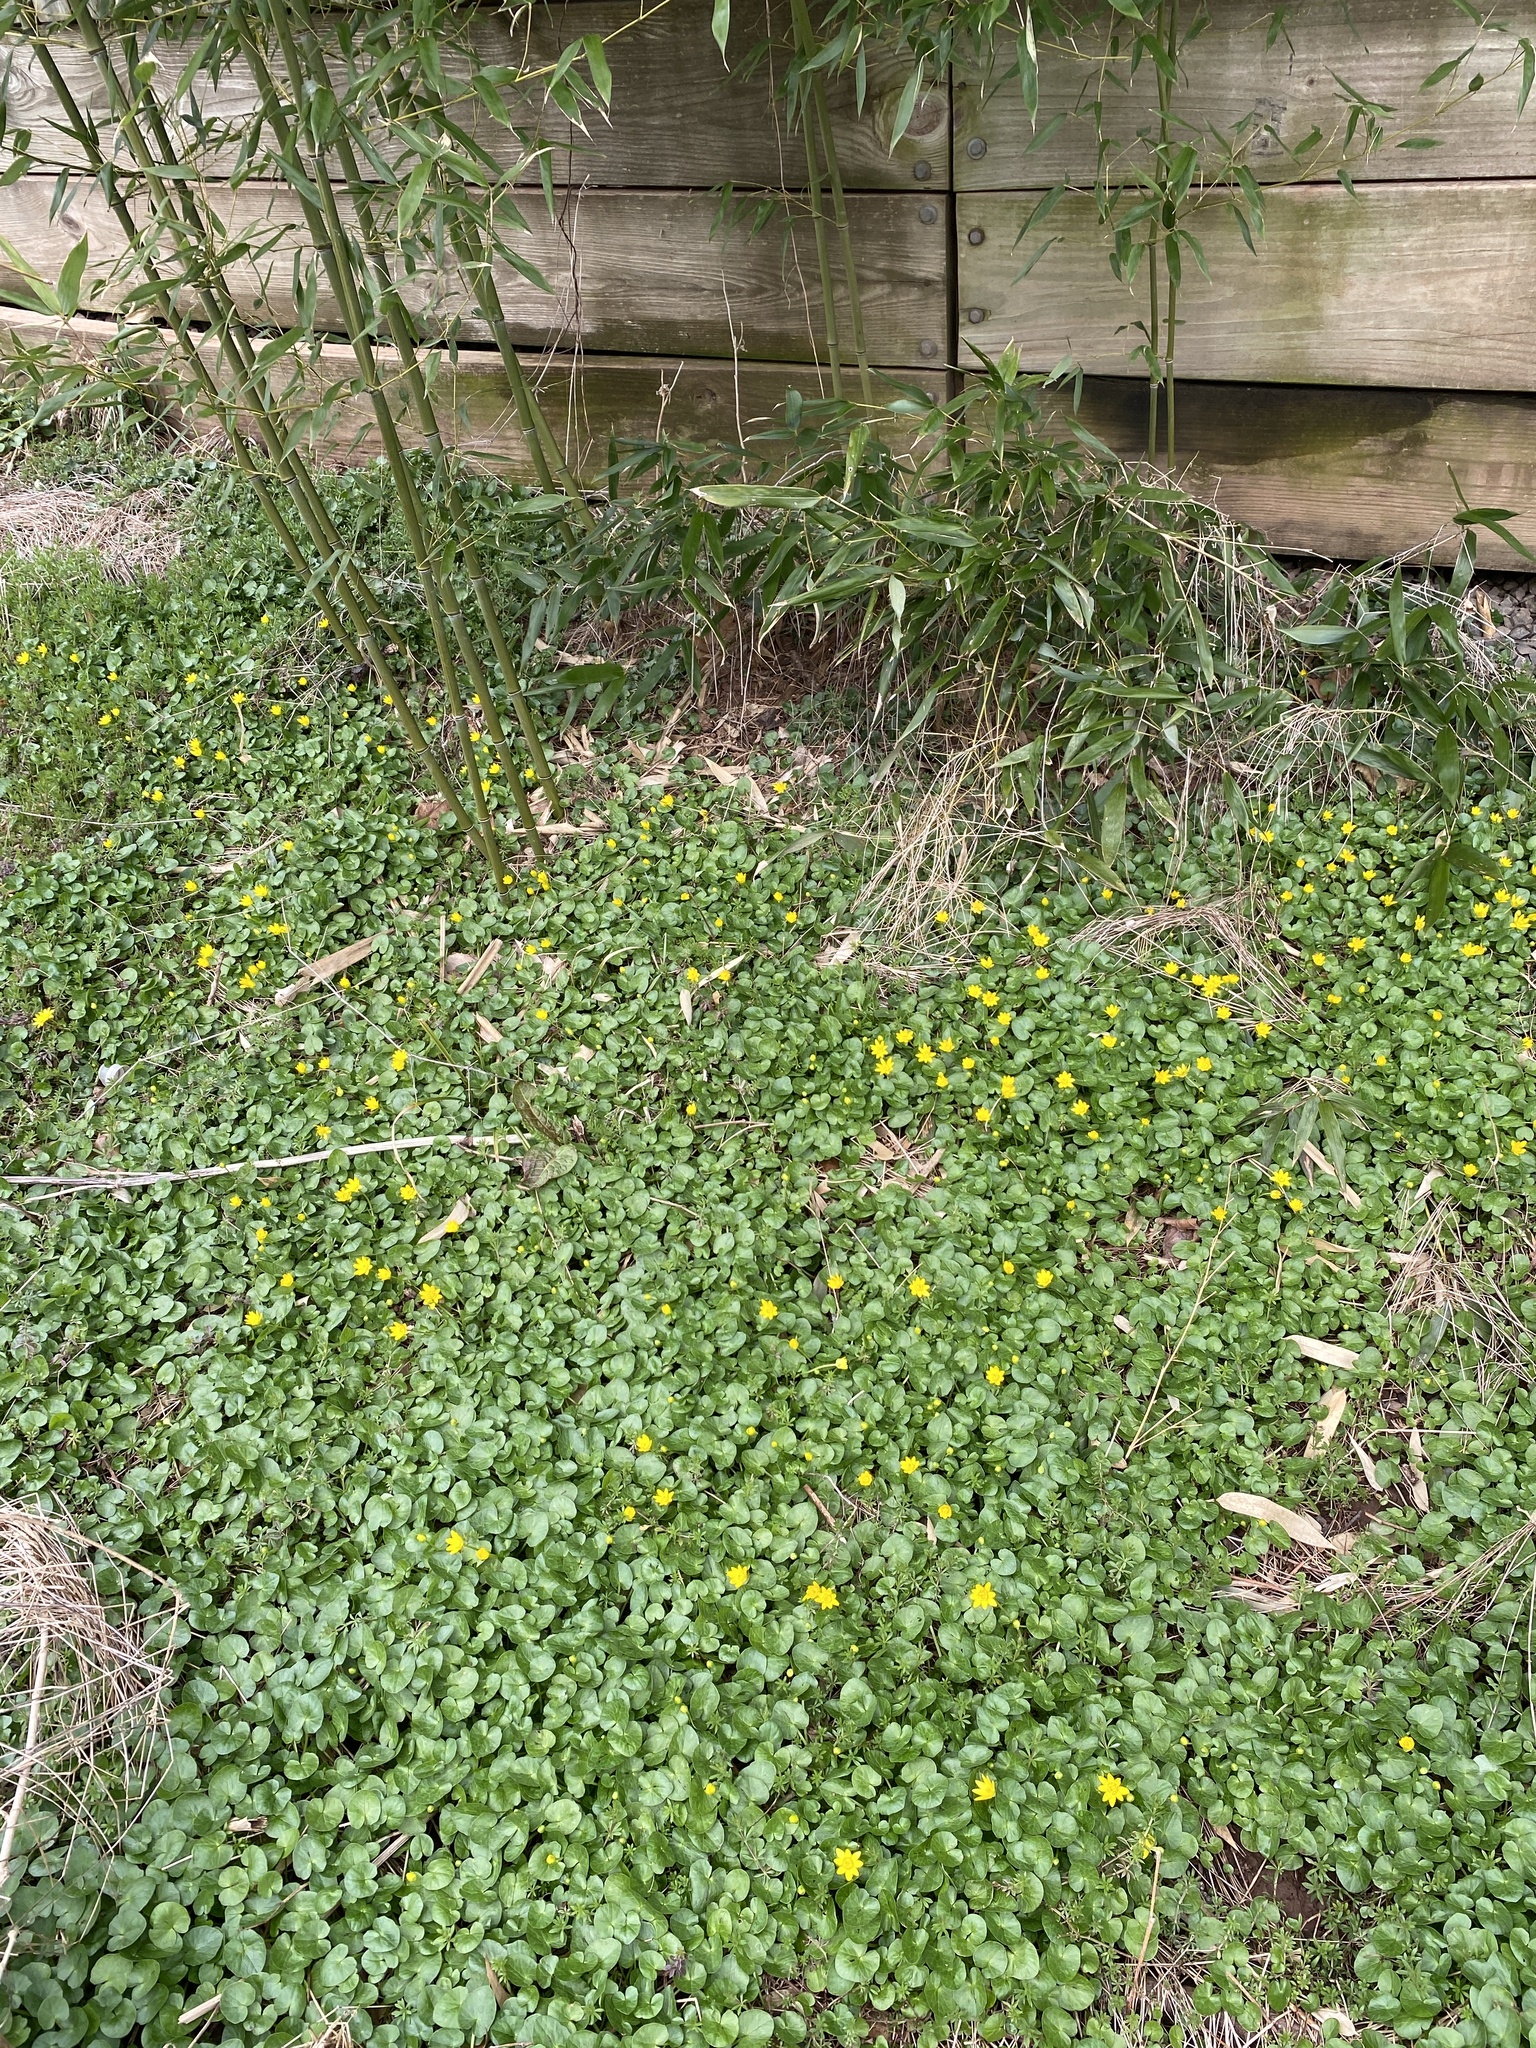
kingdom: Plantae
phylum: Tracheophyta
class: Magnoliopsida
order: Ranunculales
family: Ranunculaceae
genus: Ficaria
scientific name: Ficaria verna
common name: Lesser celandine
